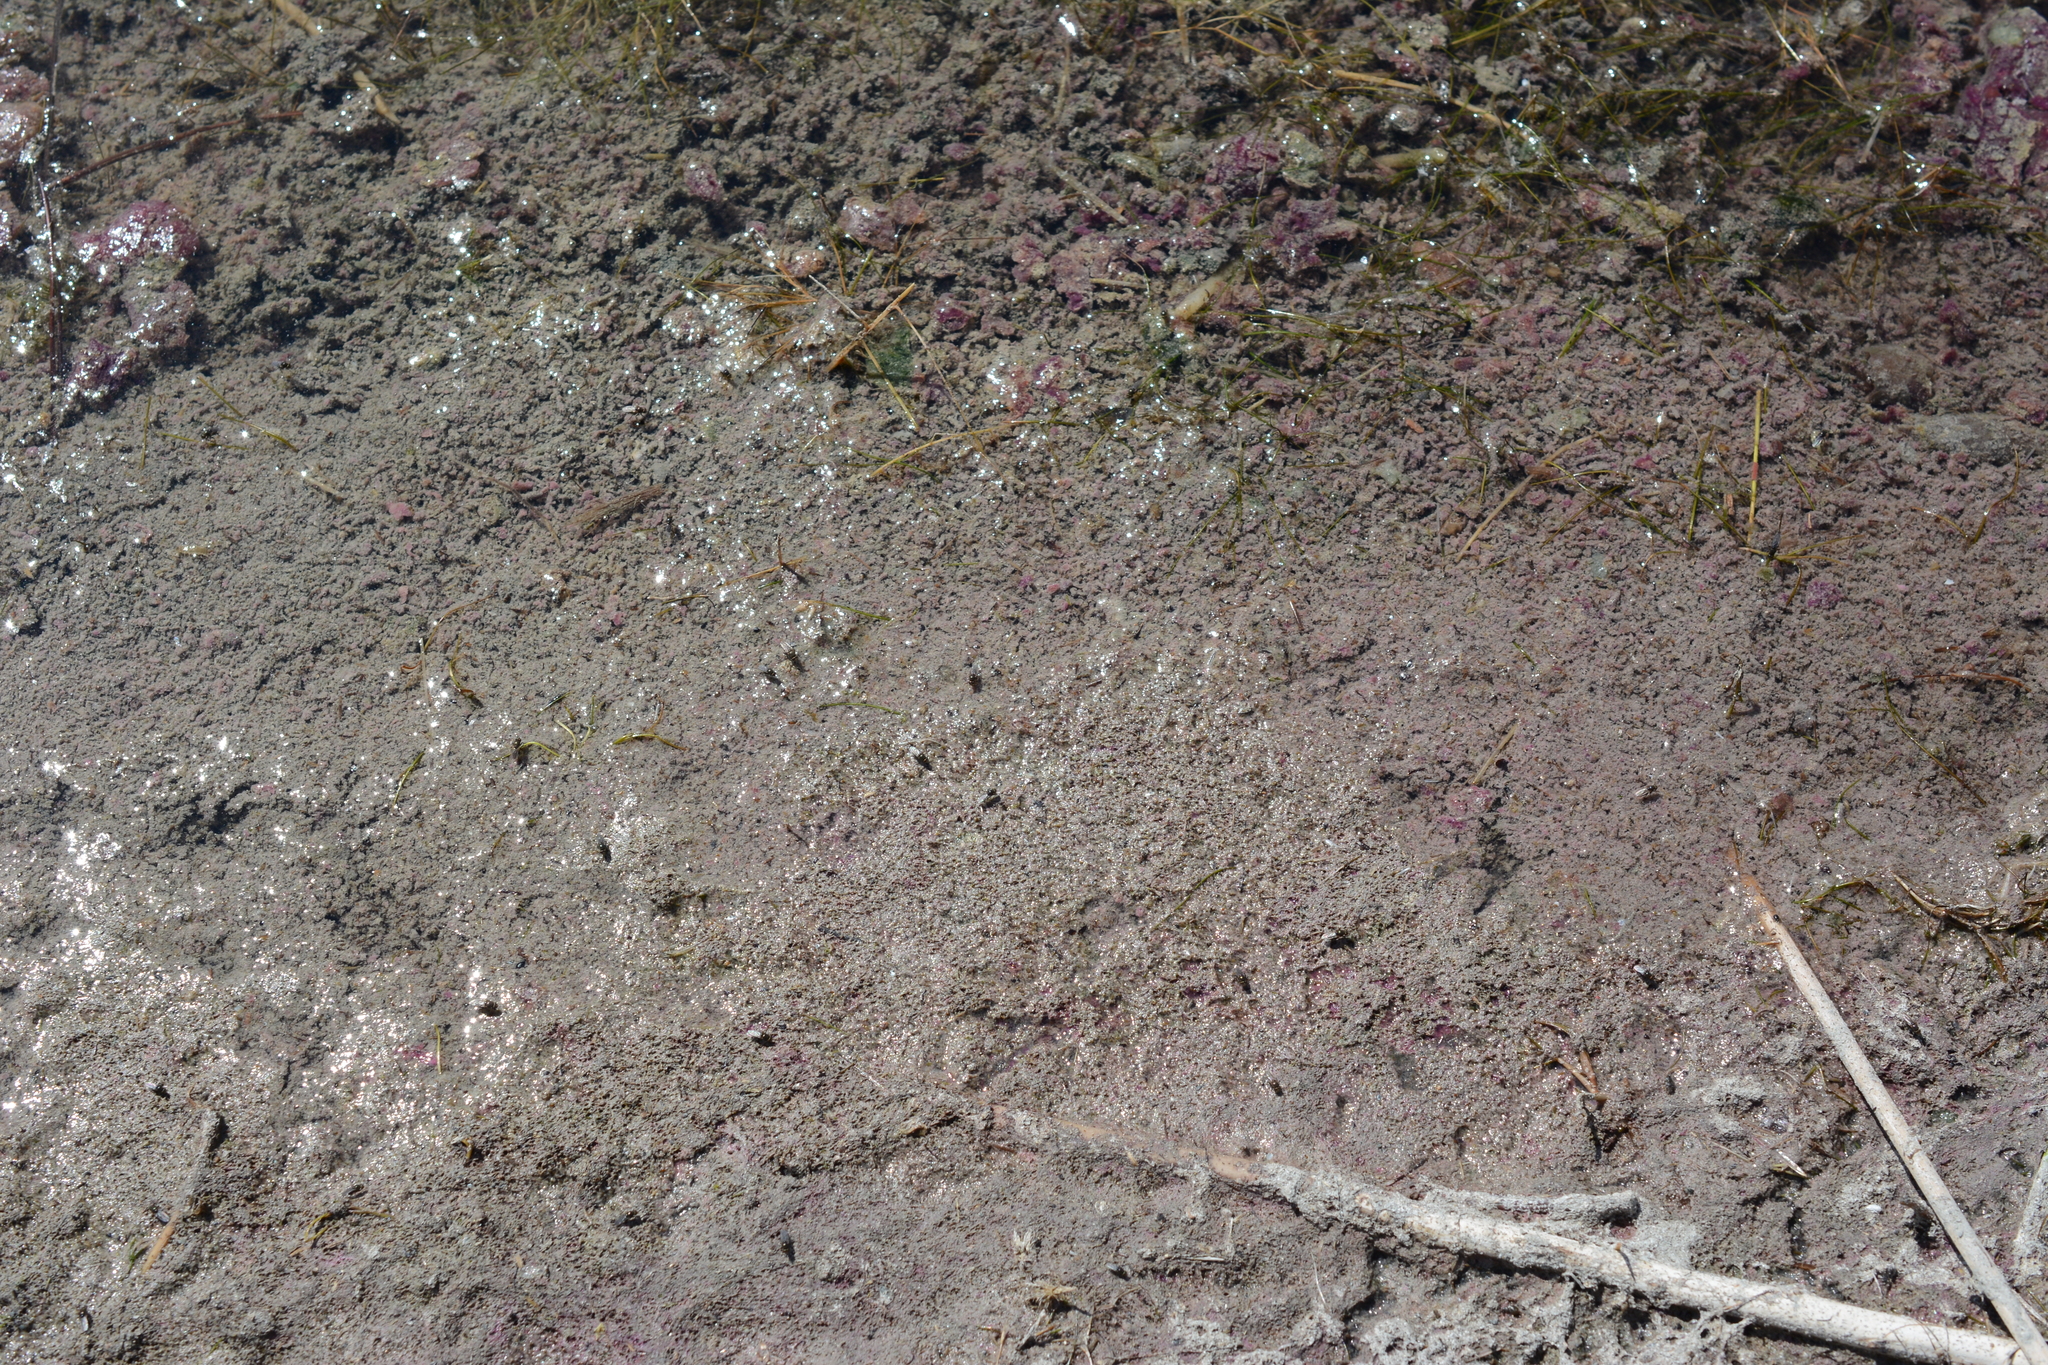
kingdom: Bacteria
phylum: Proteobacteria
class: Gammaproteobacteria
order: Chromatiales
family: Chromatiaceae
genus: Lamprocystis
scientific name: Lamprocystis purpurea
